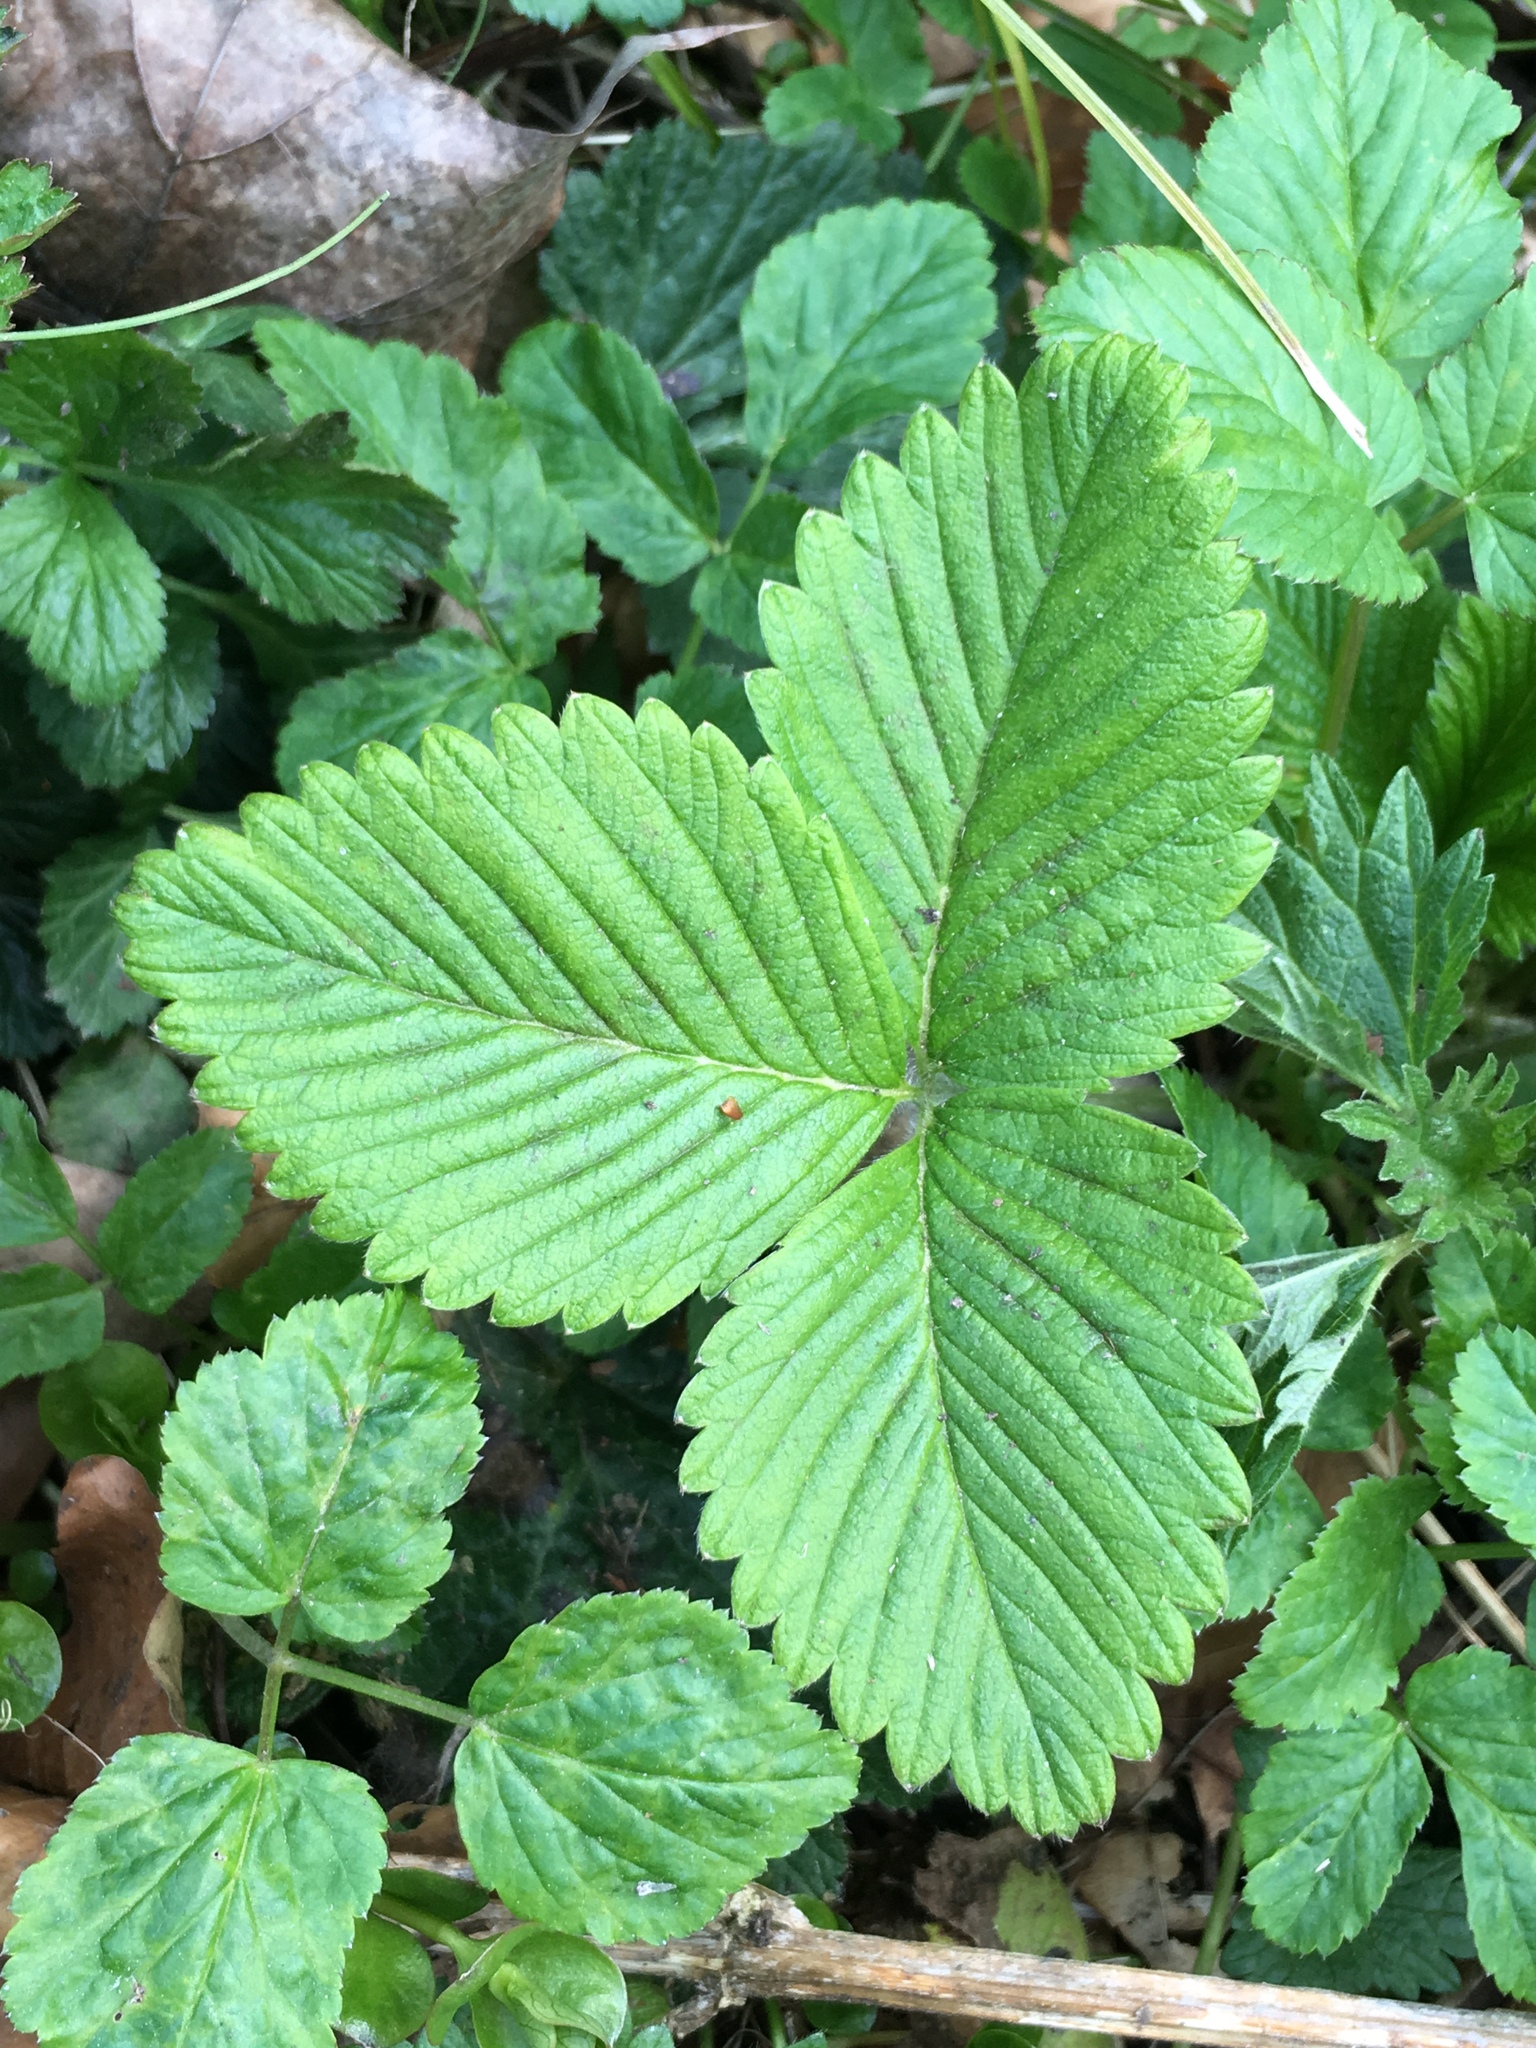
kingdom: Plantae
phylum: Tracheophyta
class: Magnoliopsida
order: Rosales
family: Rosaceae
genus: Fragaria
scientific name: Fragaria vesca
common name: Wild strawberry
